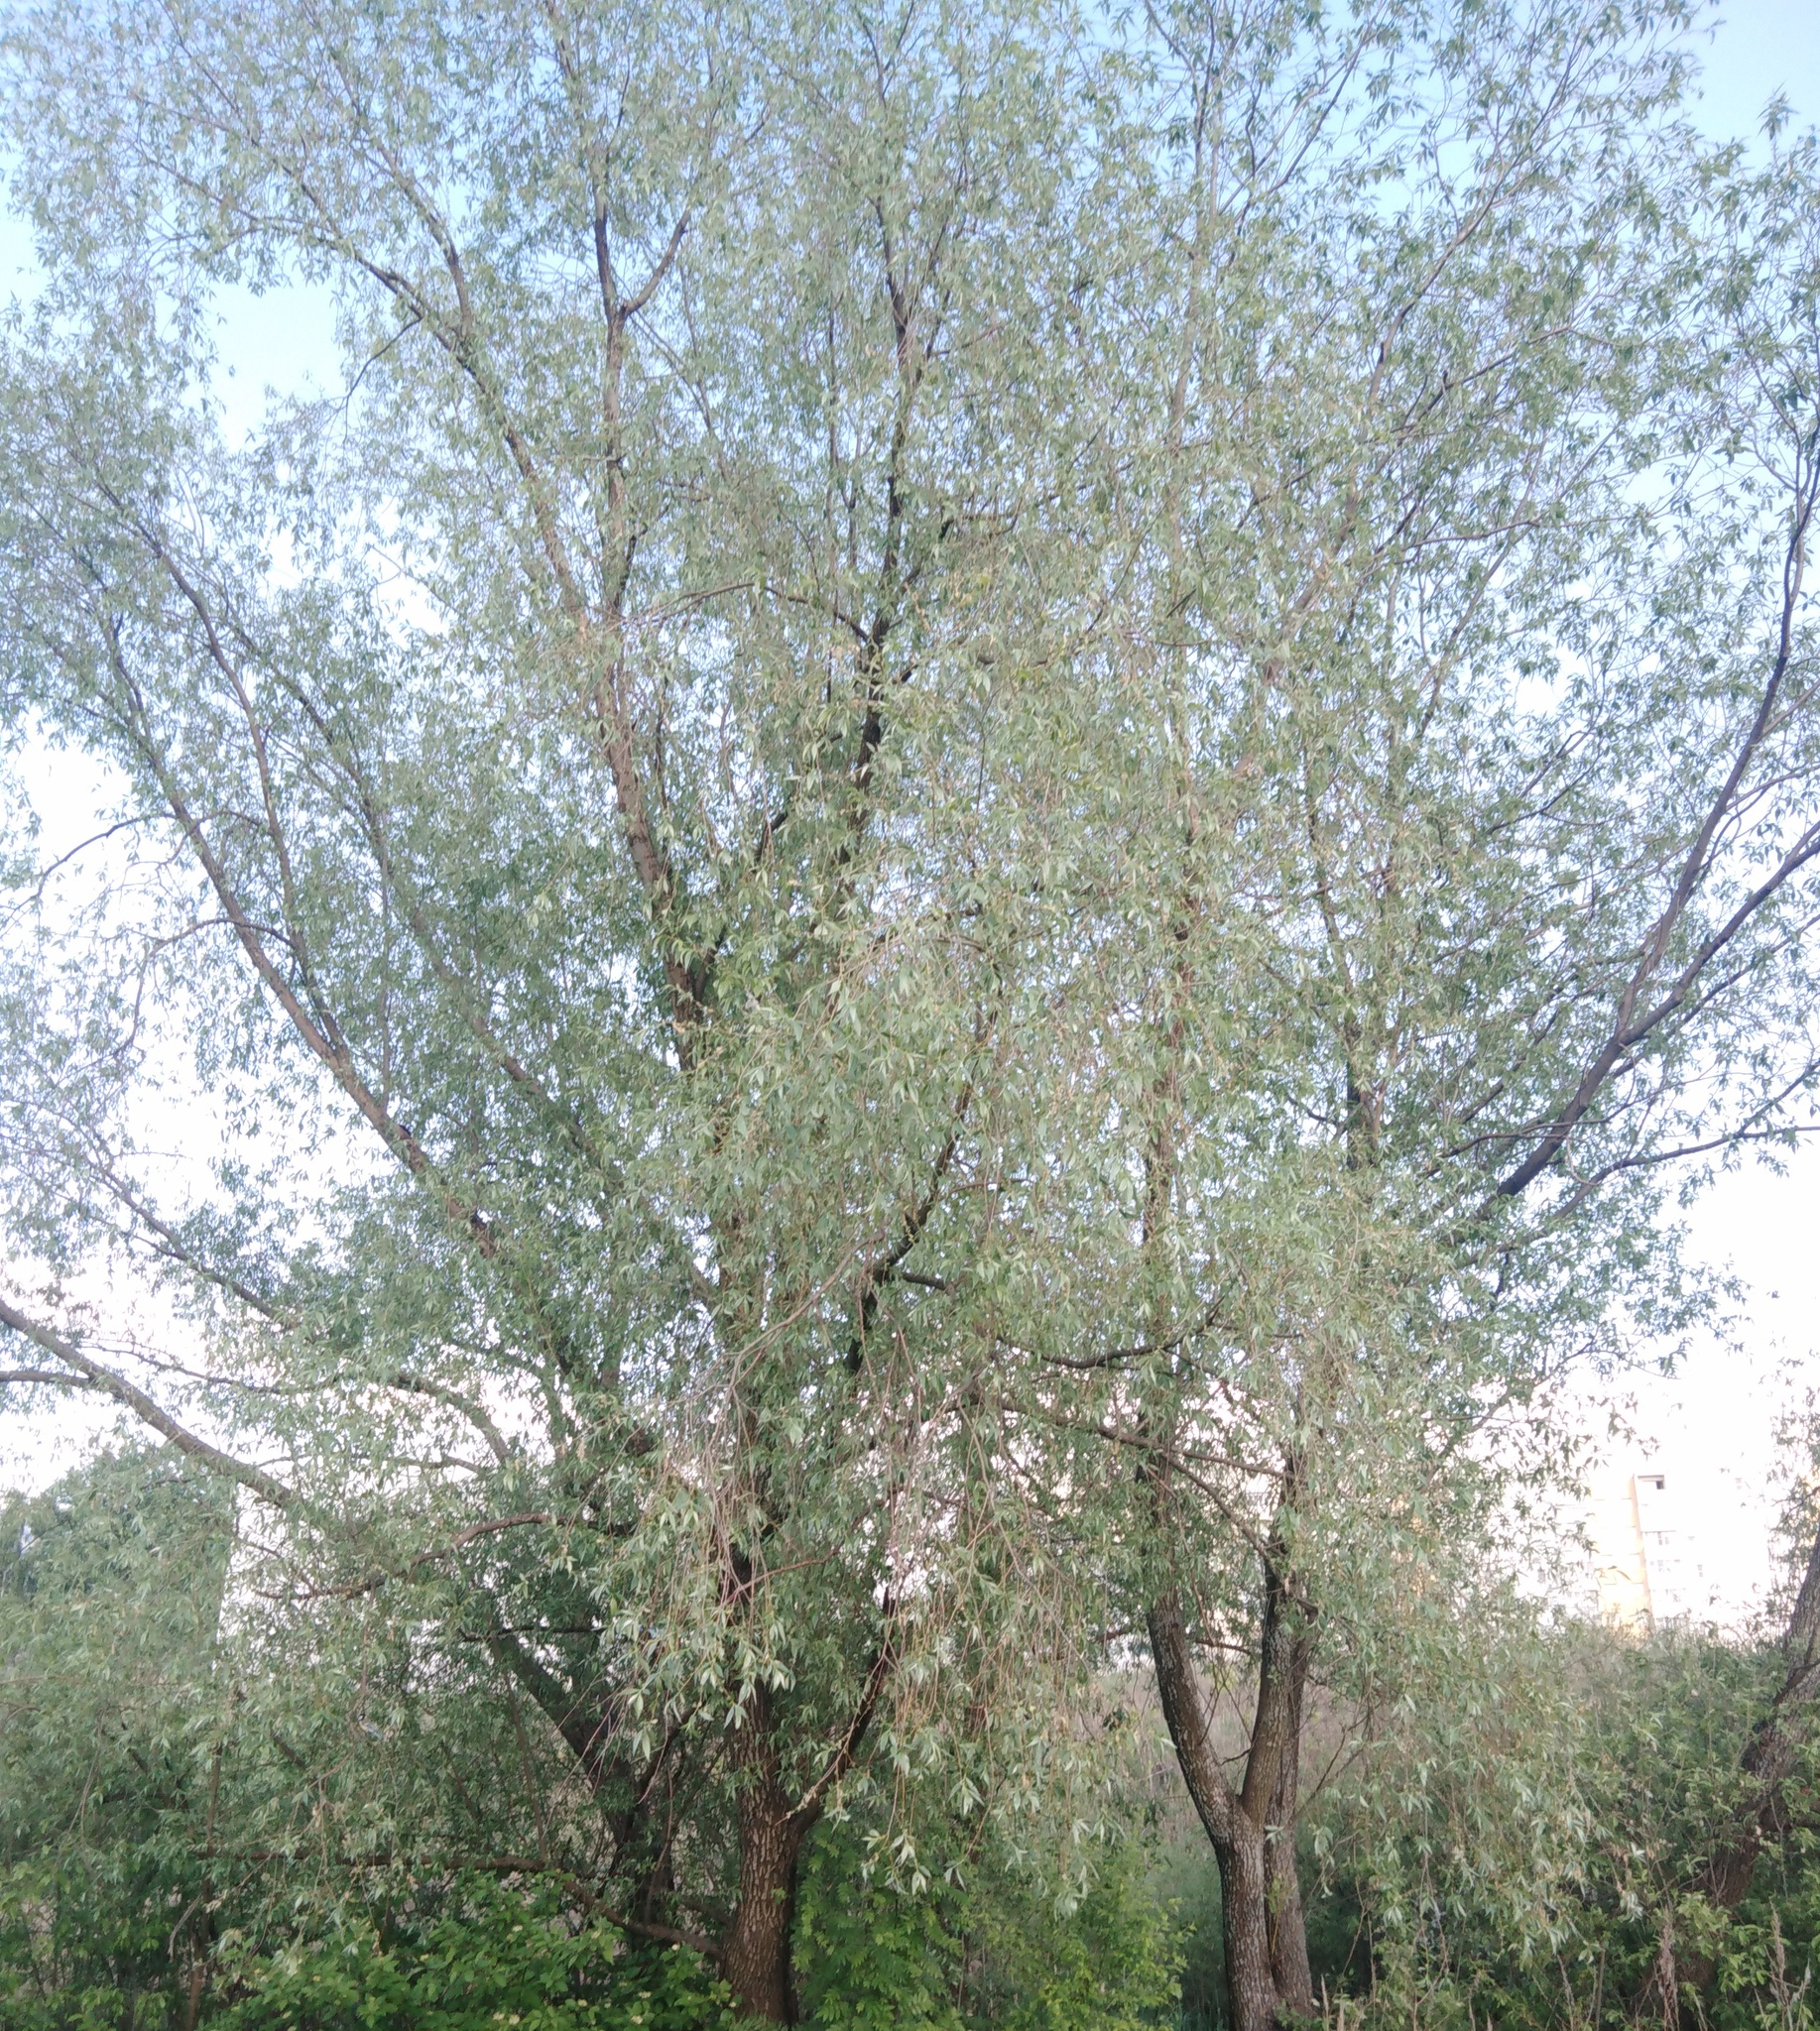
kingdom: Plantae
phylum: Tracheophyta
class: Magnoliopsida
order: Malpighiales
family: Salicaceae
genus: Salix
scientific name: Salix alba
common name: White willow
